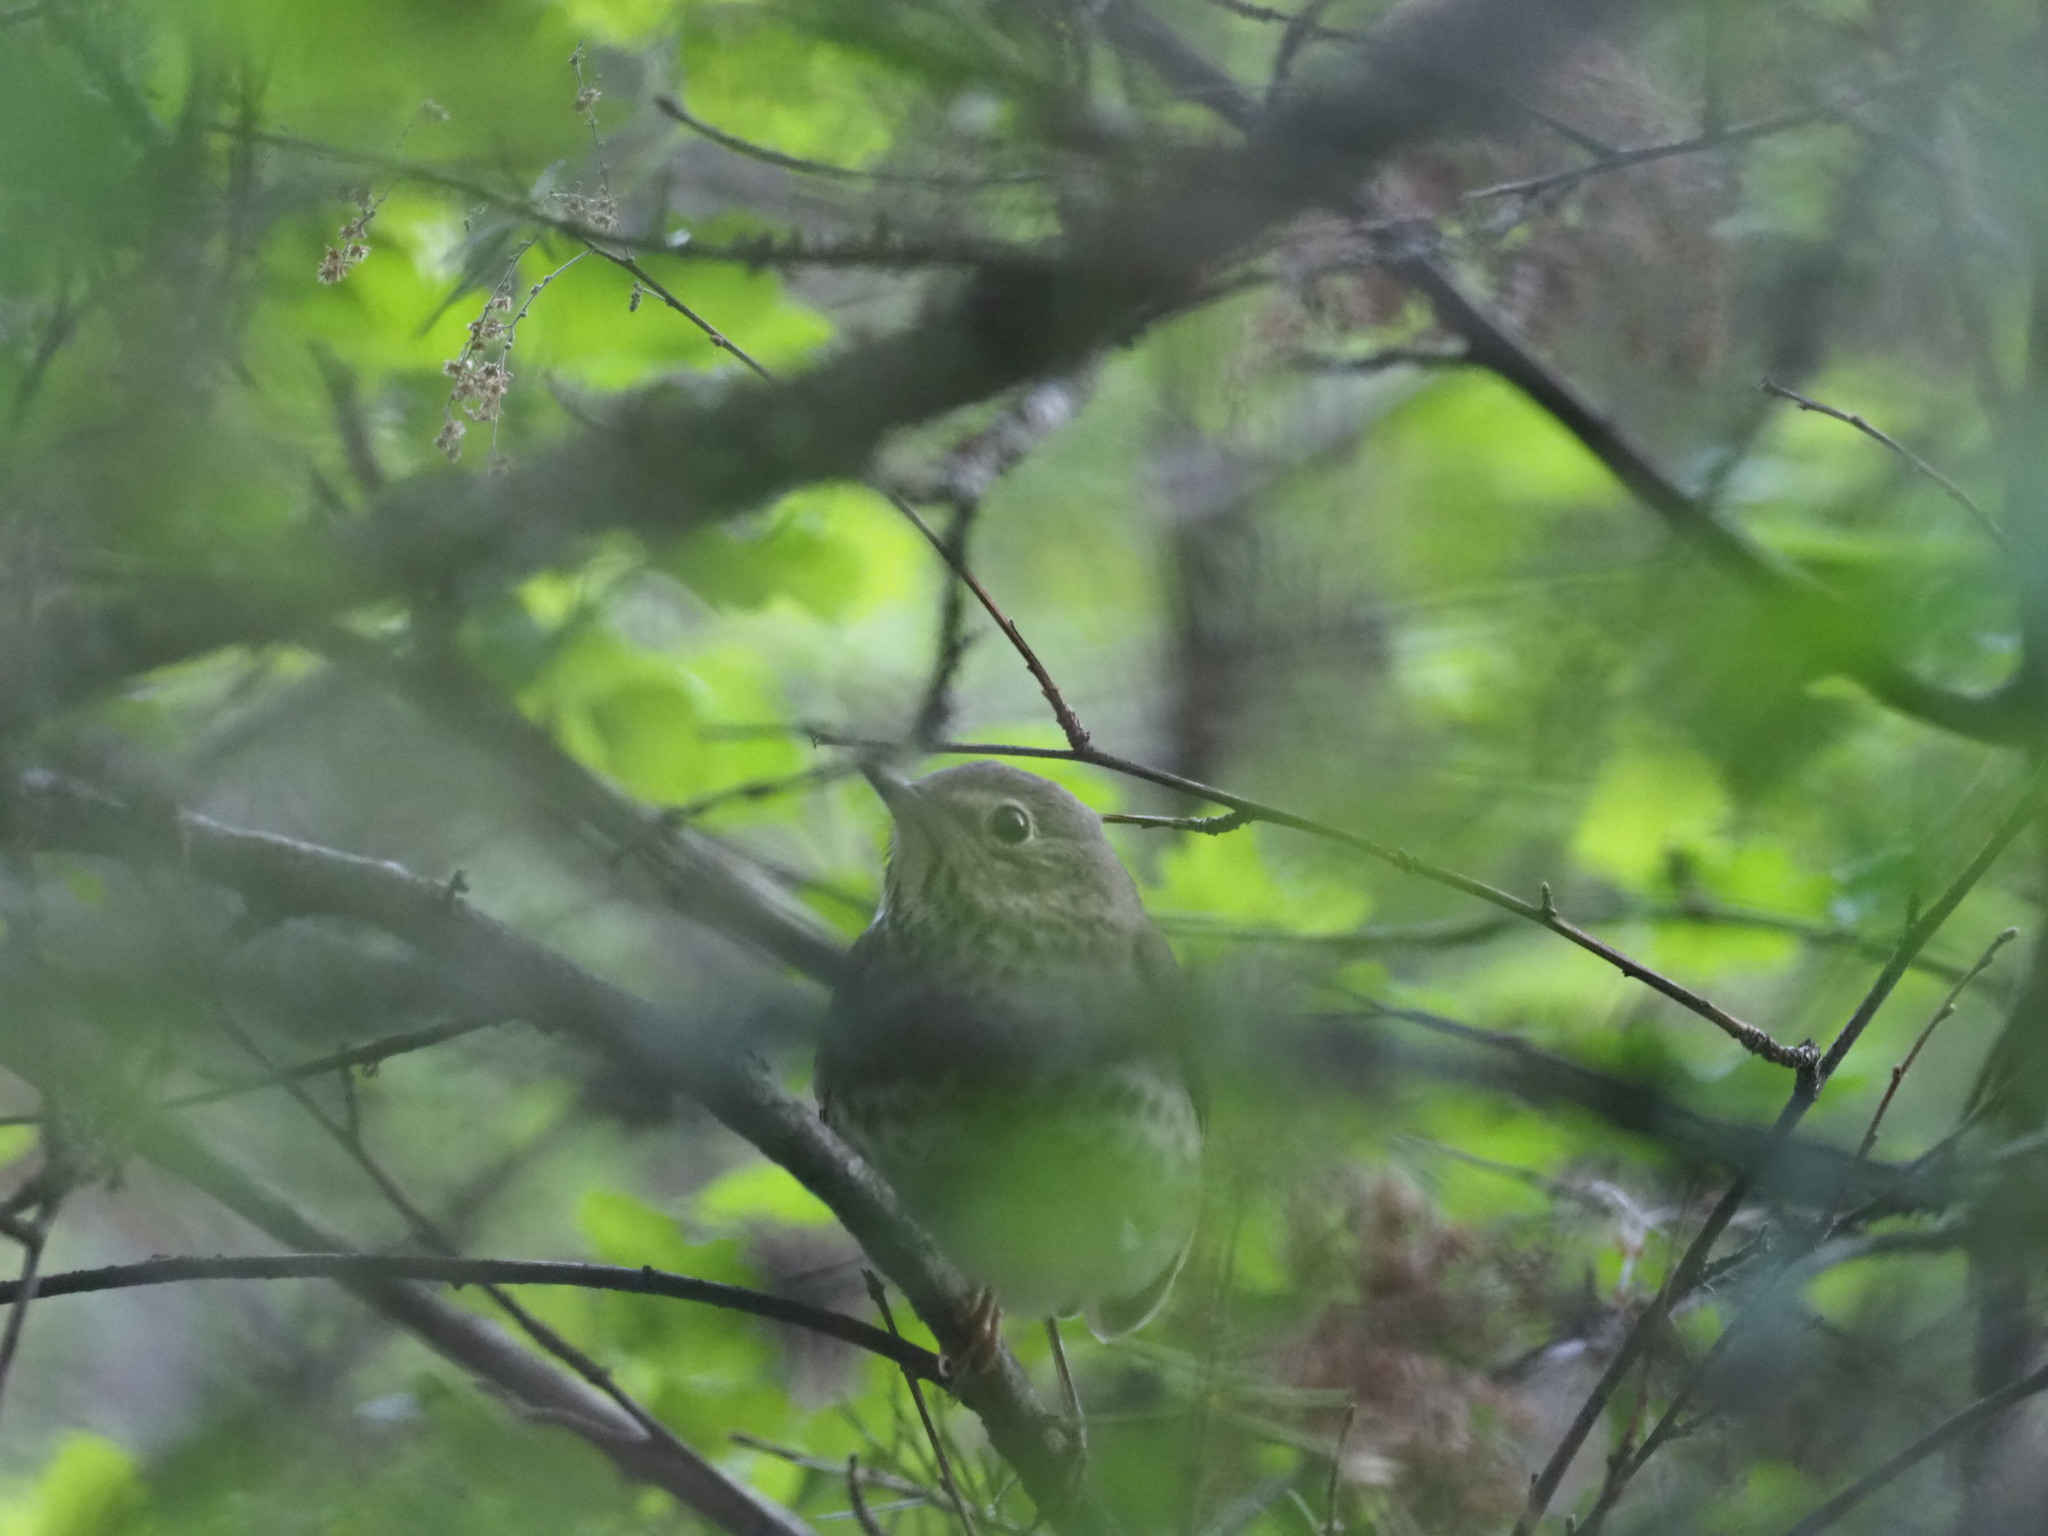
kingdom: Animalia
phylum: Chordata
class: Aves
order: Passeriformes
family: Turdidae
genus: Catharus
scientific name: Catharus ustulatus
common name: Swainson's thrush
